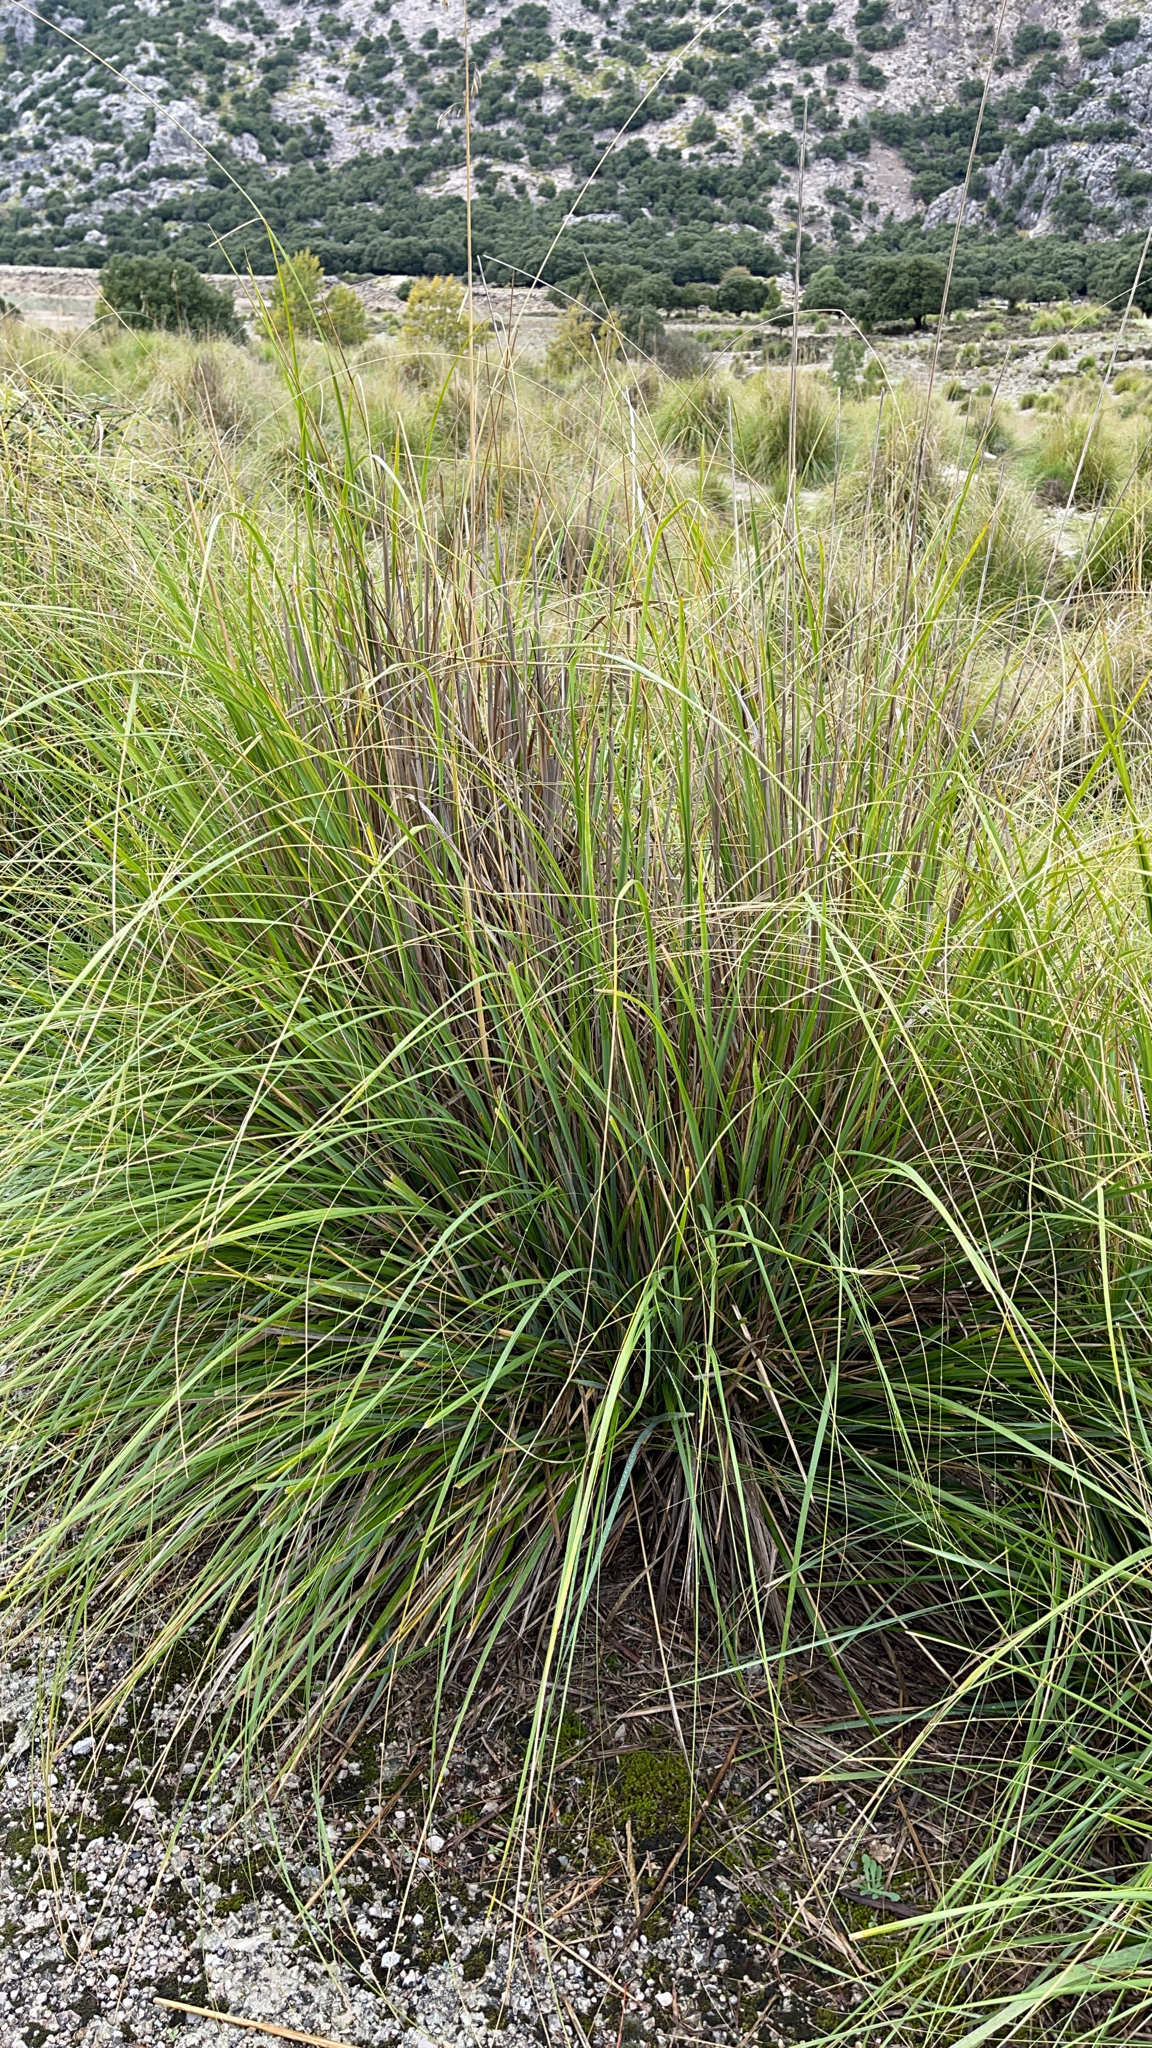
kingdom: Plantae
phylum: Tracheophyta
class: Liliopsida
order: Poales
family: Poaceae
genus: Ampelodesmos
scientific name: Ampelodesmos mauritanicus
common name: Mauritanian grass
